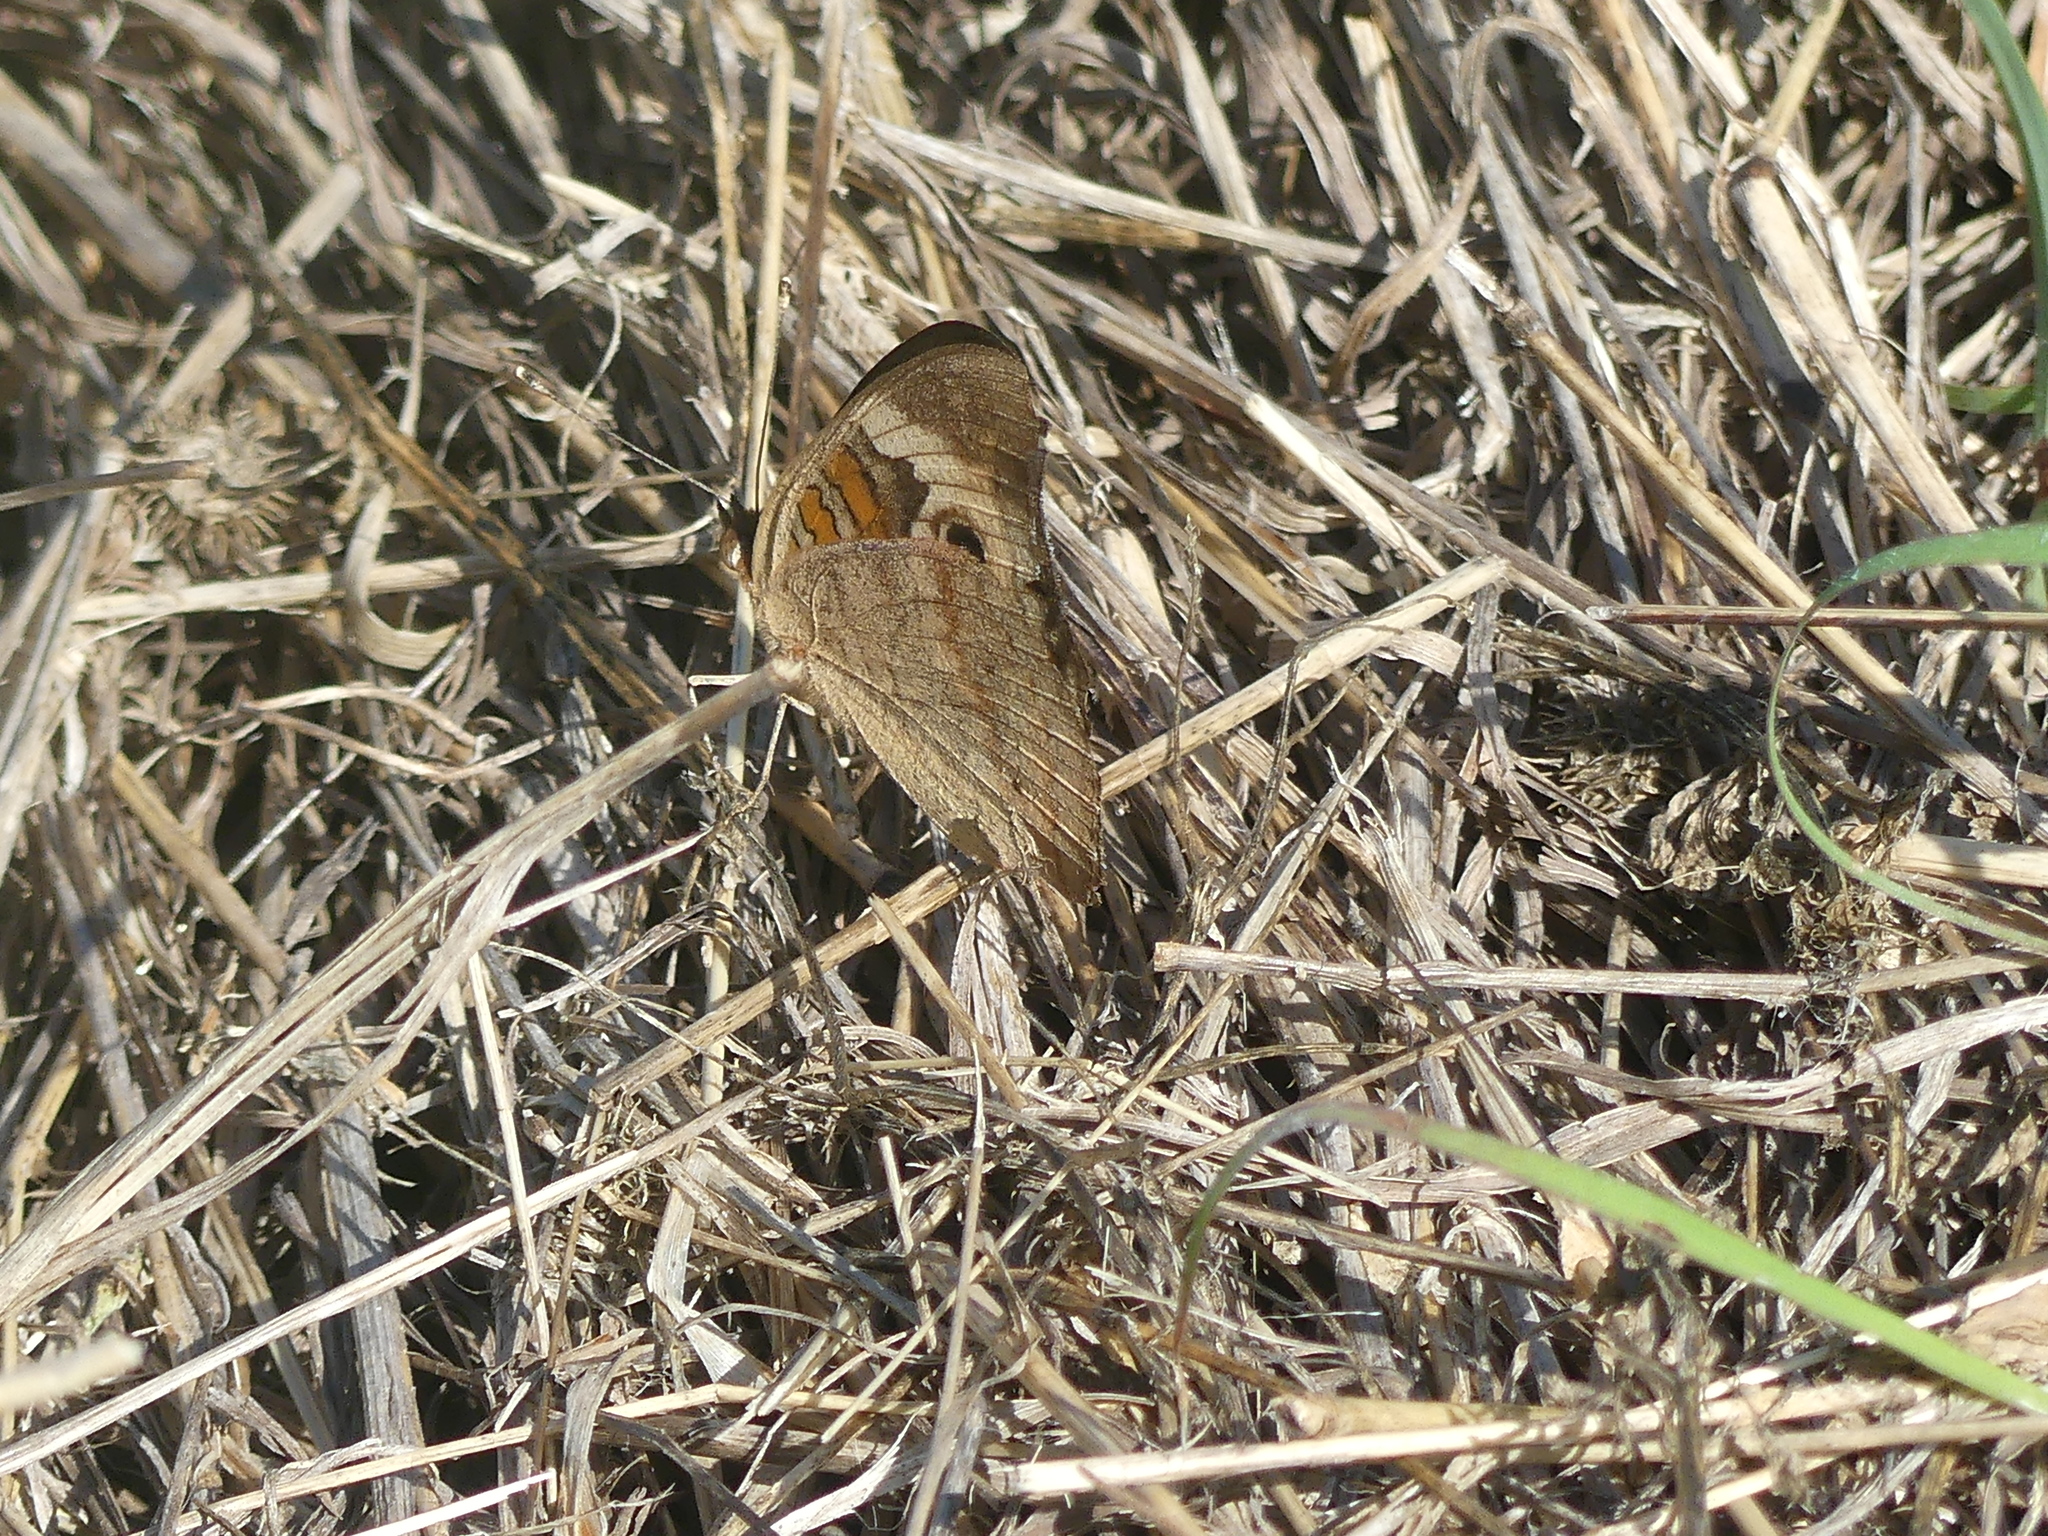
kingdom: Animalia
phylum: Arthropoda
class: Insecta
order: Lepidoptera
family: Nymphalidae
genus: Junonia
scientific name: Junonia coenia
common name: Common buckeye
